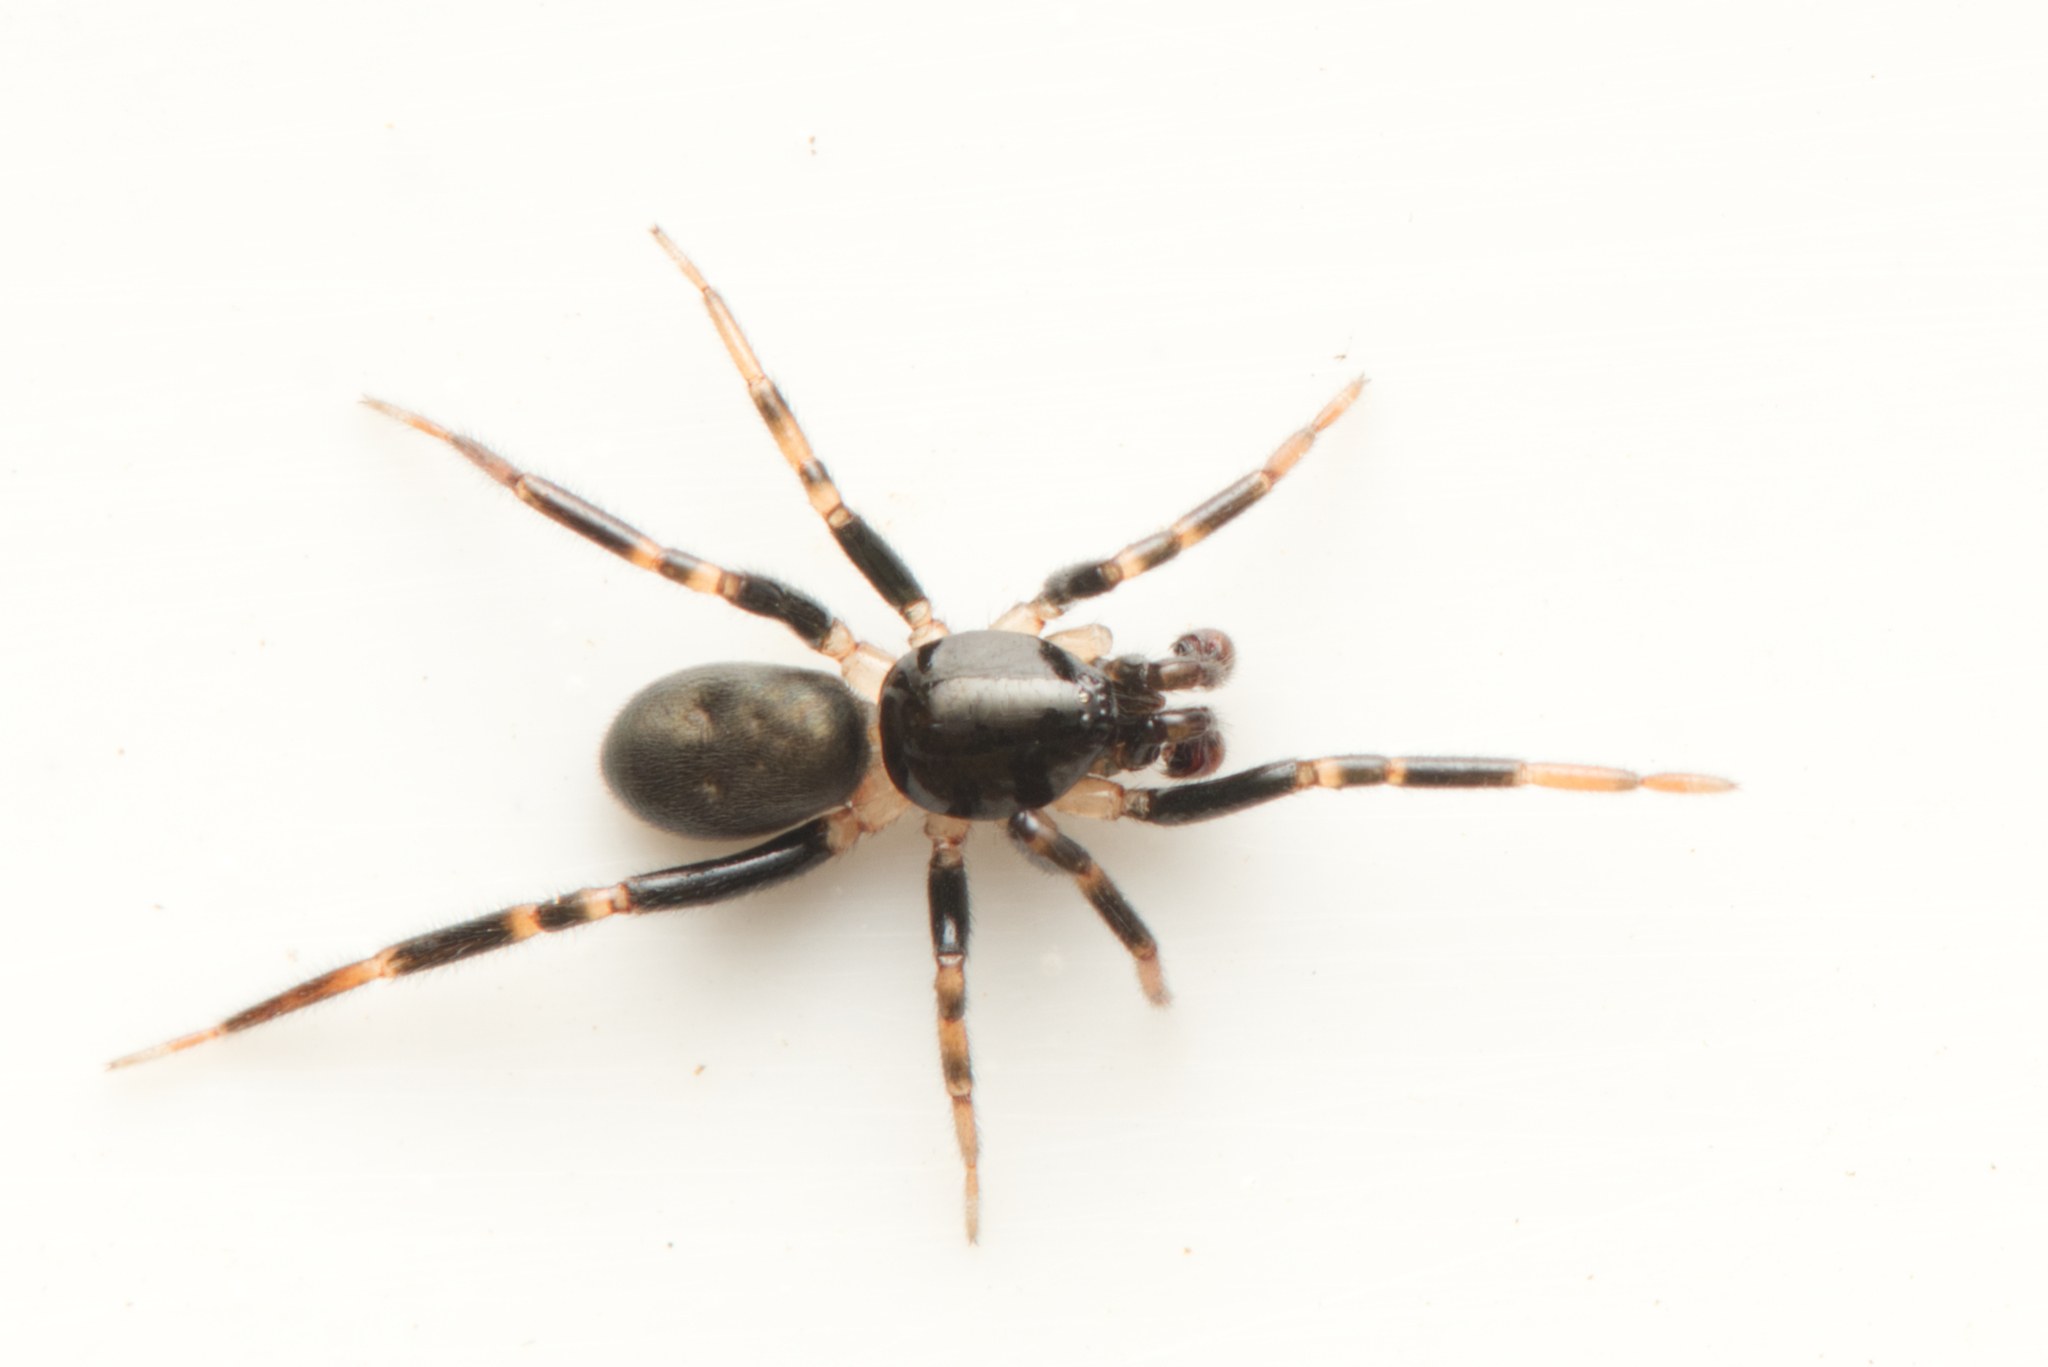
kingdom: Animalia
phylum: Arthropoda
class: Arachnida
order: Araneae
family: Trachycosmidae
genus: Neato
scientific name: Neato beerwah
